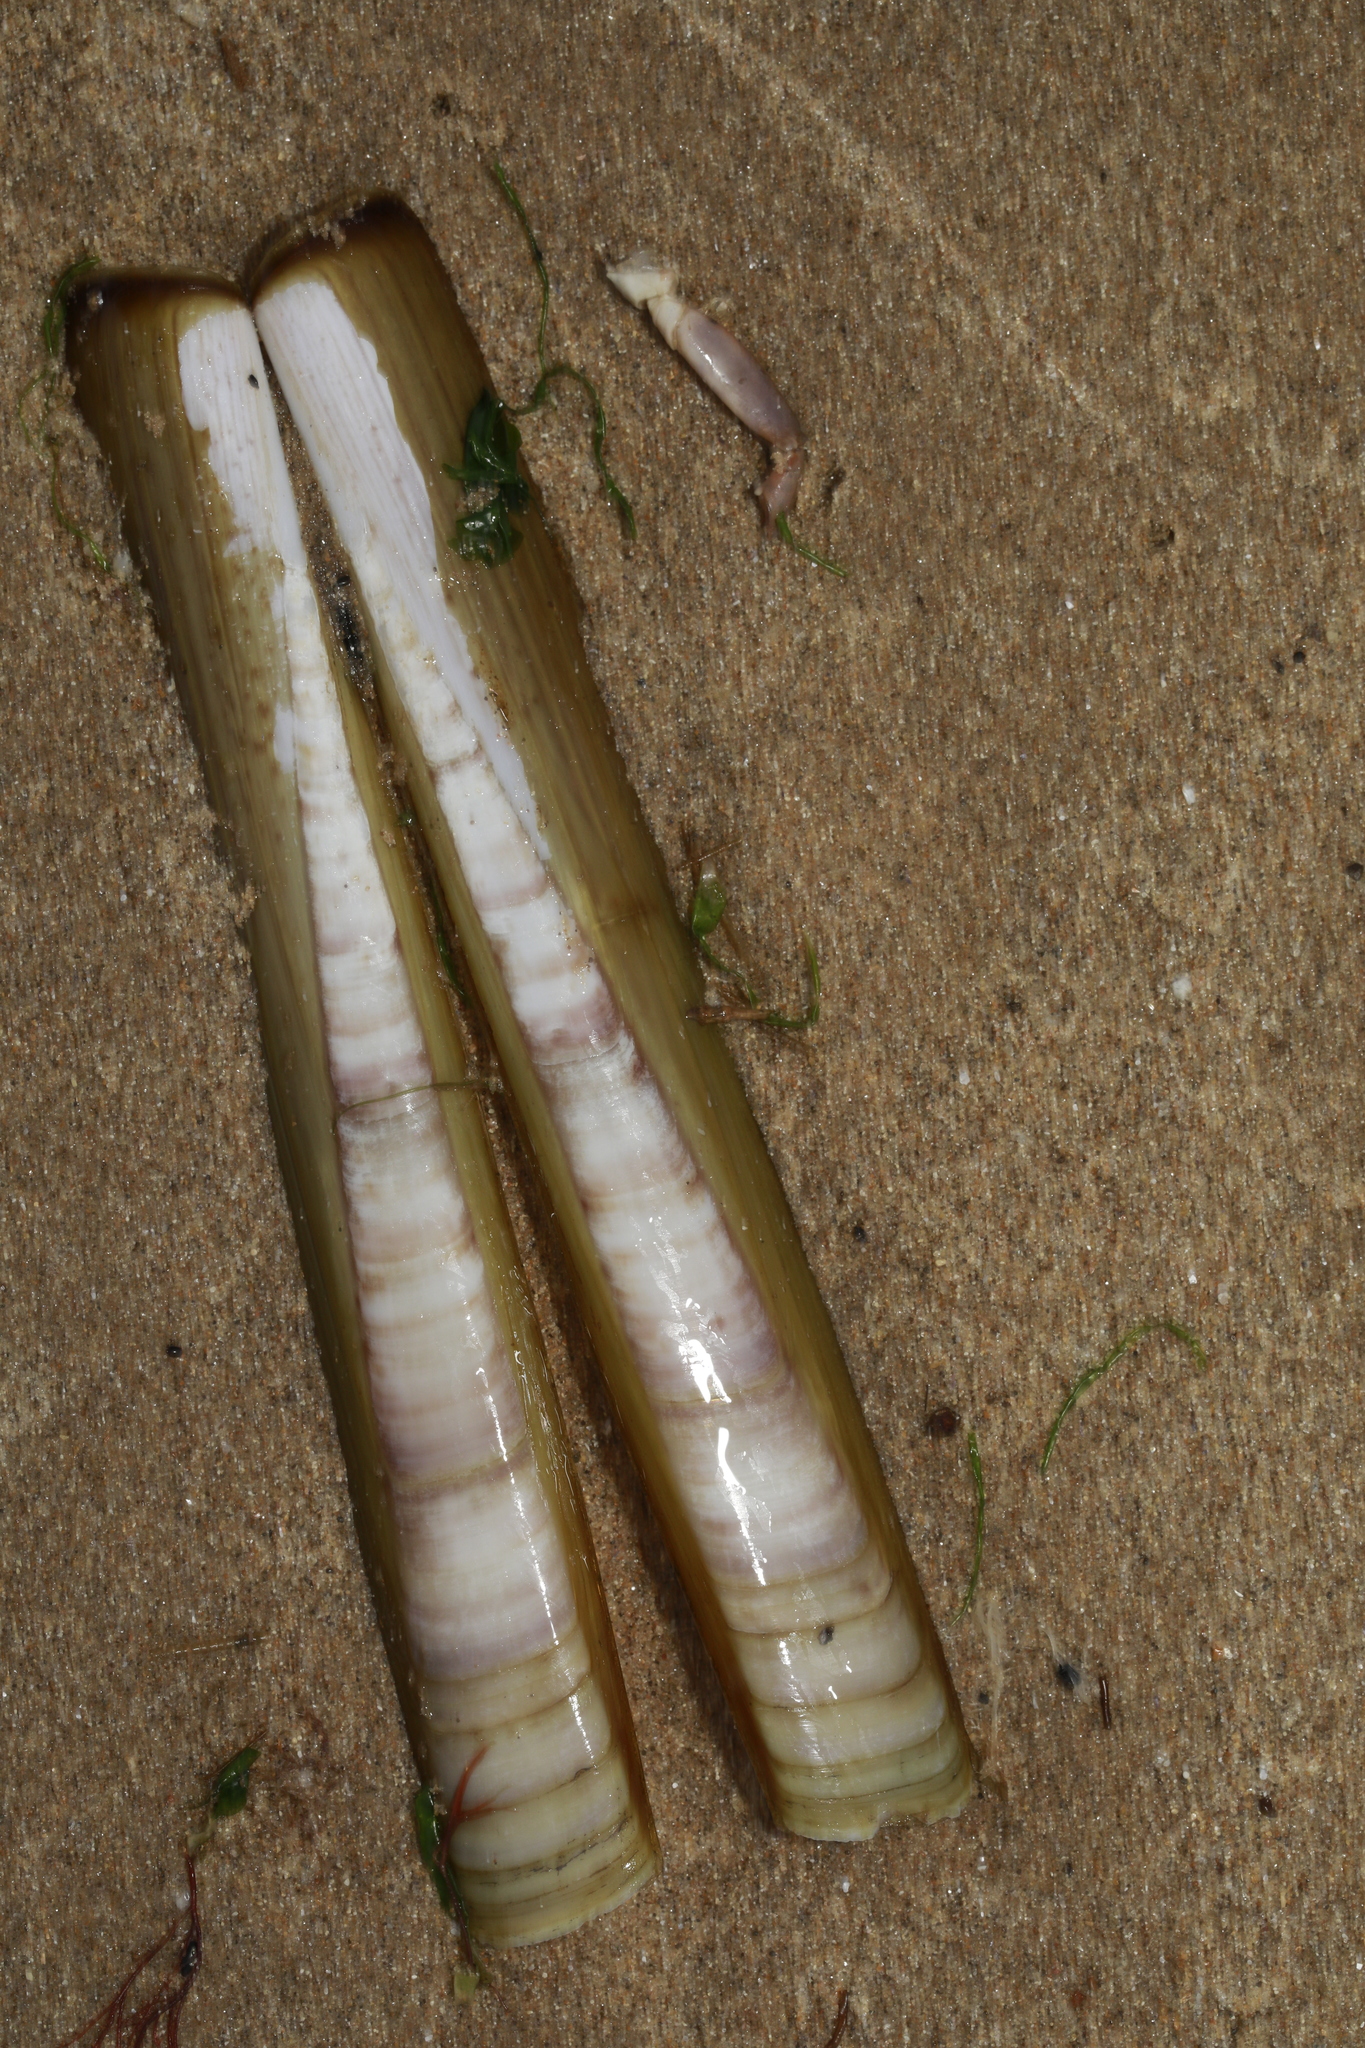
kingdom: Animalia
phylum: Mollusca
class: Bivalvia
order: Adapedonta
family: Pharidae
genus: Ensis
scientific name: Ensis siliqua
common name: Pod razor shell
